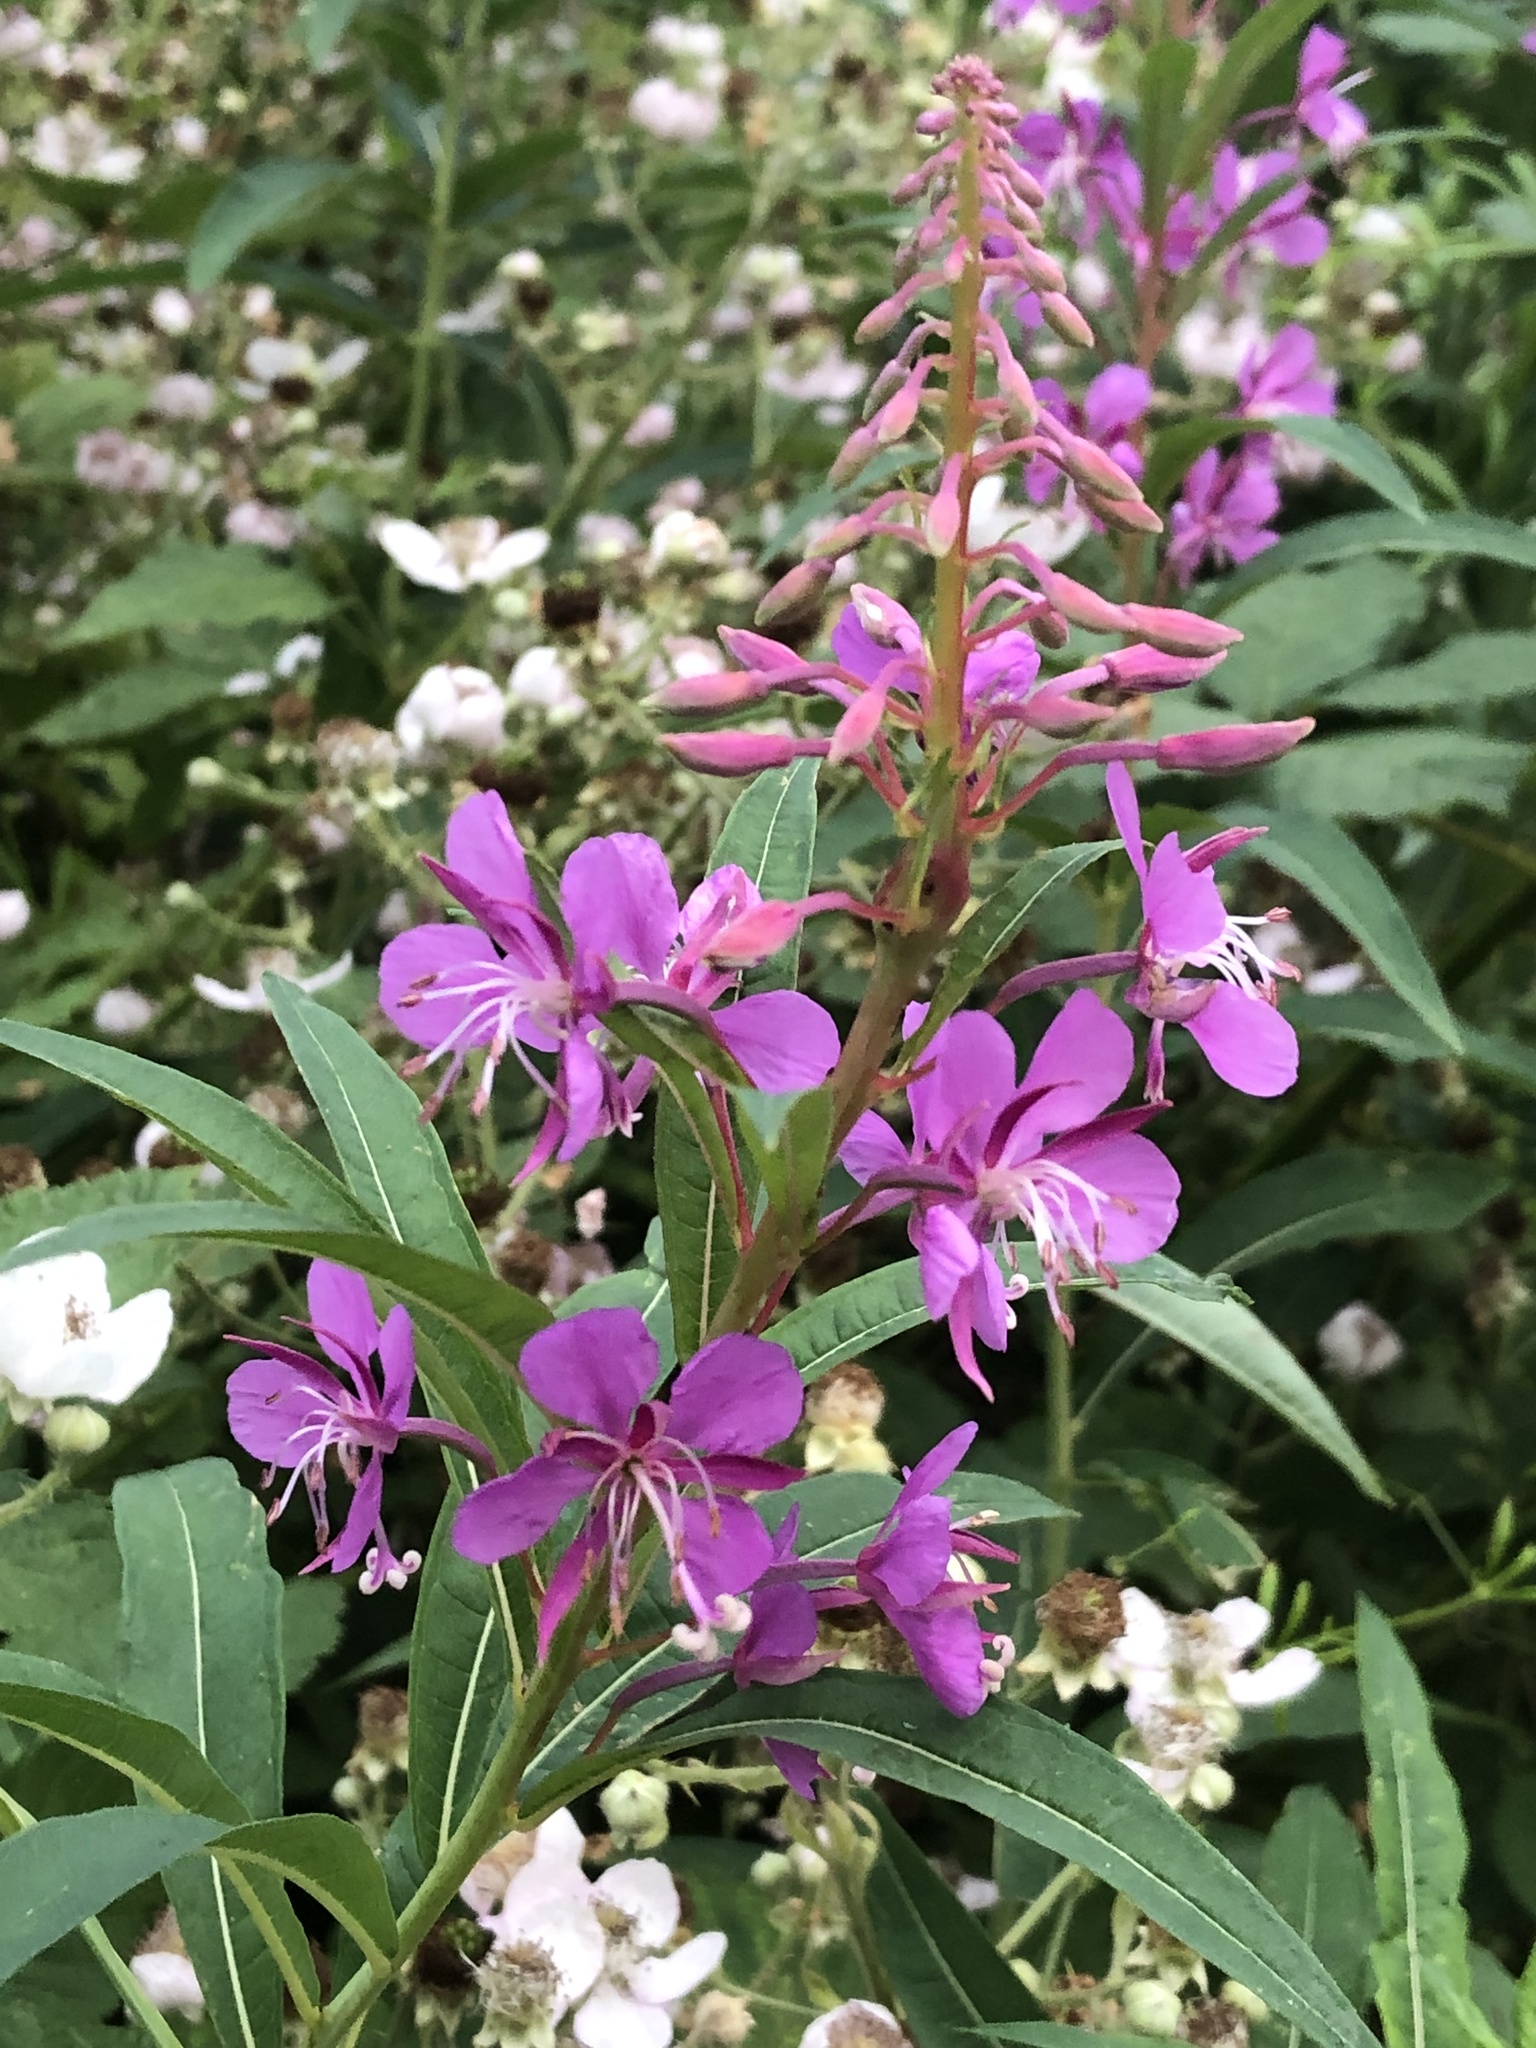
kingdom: Plantae
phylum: Tracheophyta
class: Magnoliopsida
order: Myrtales
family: Onagraceae
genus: Chamaenerion
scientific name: Chamaenerion angustifolium
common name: Fireweed
